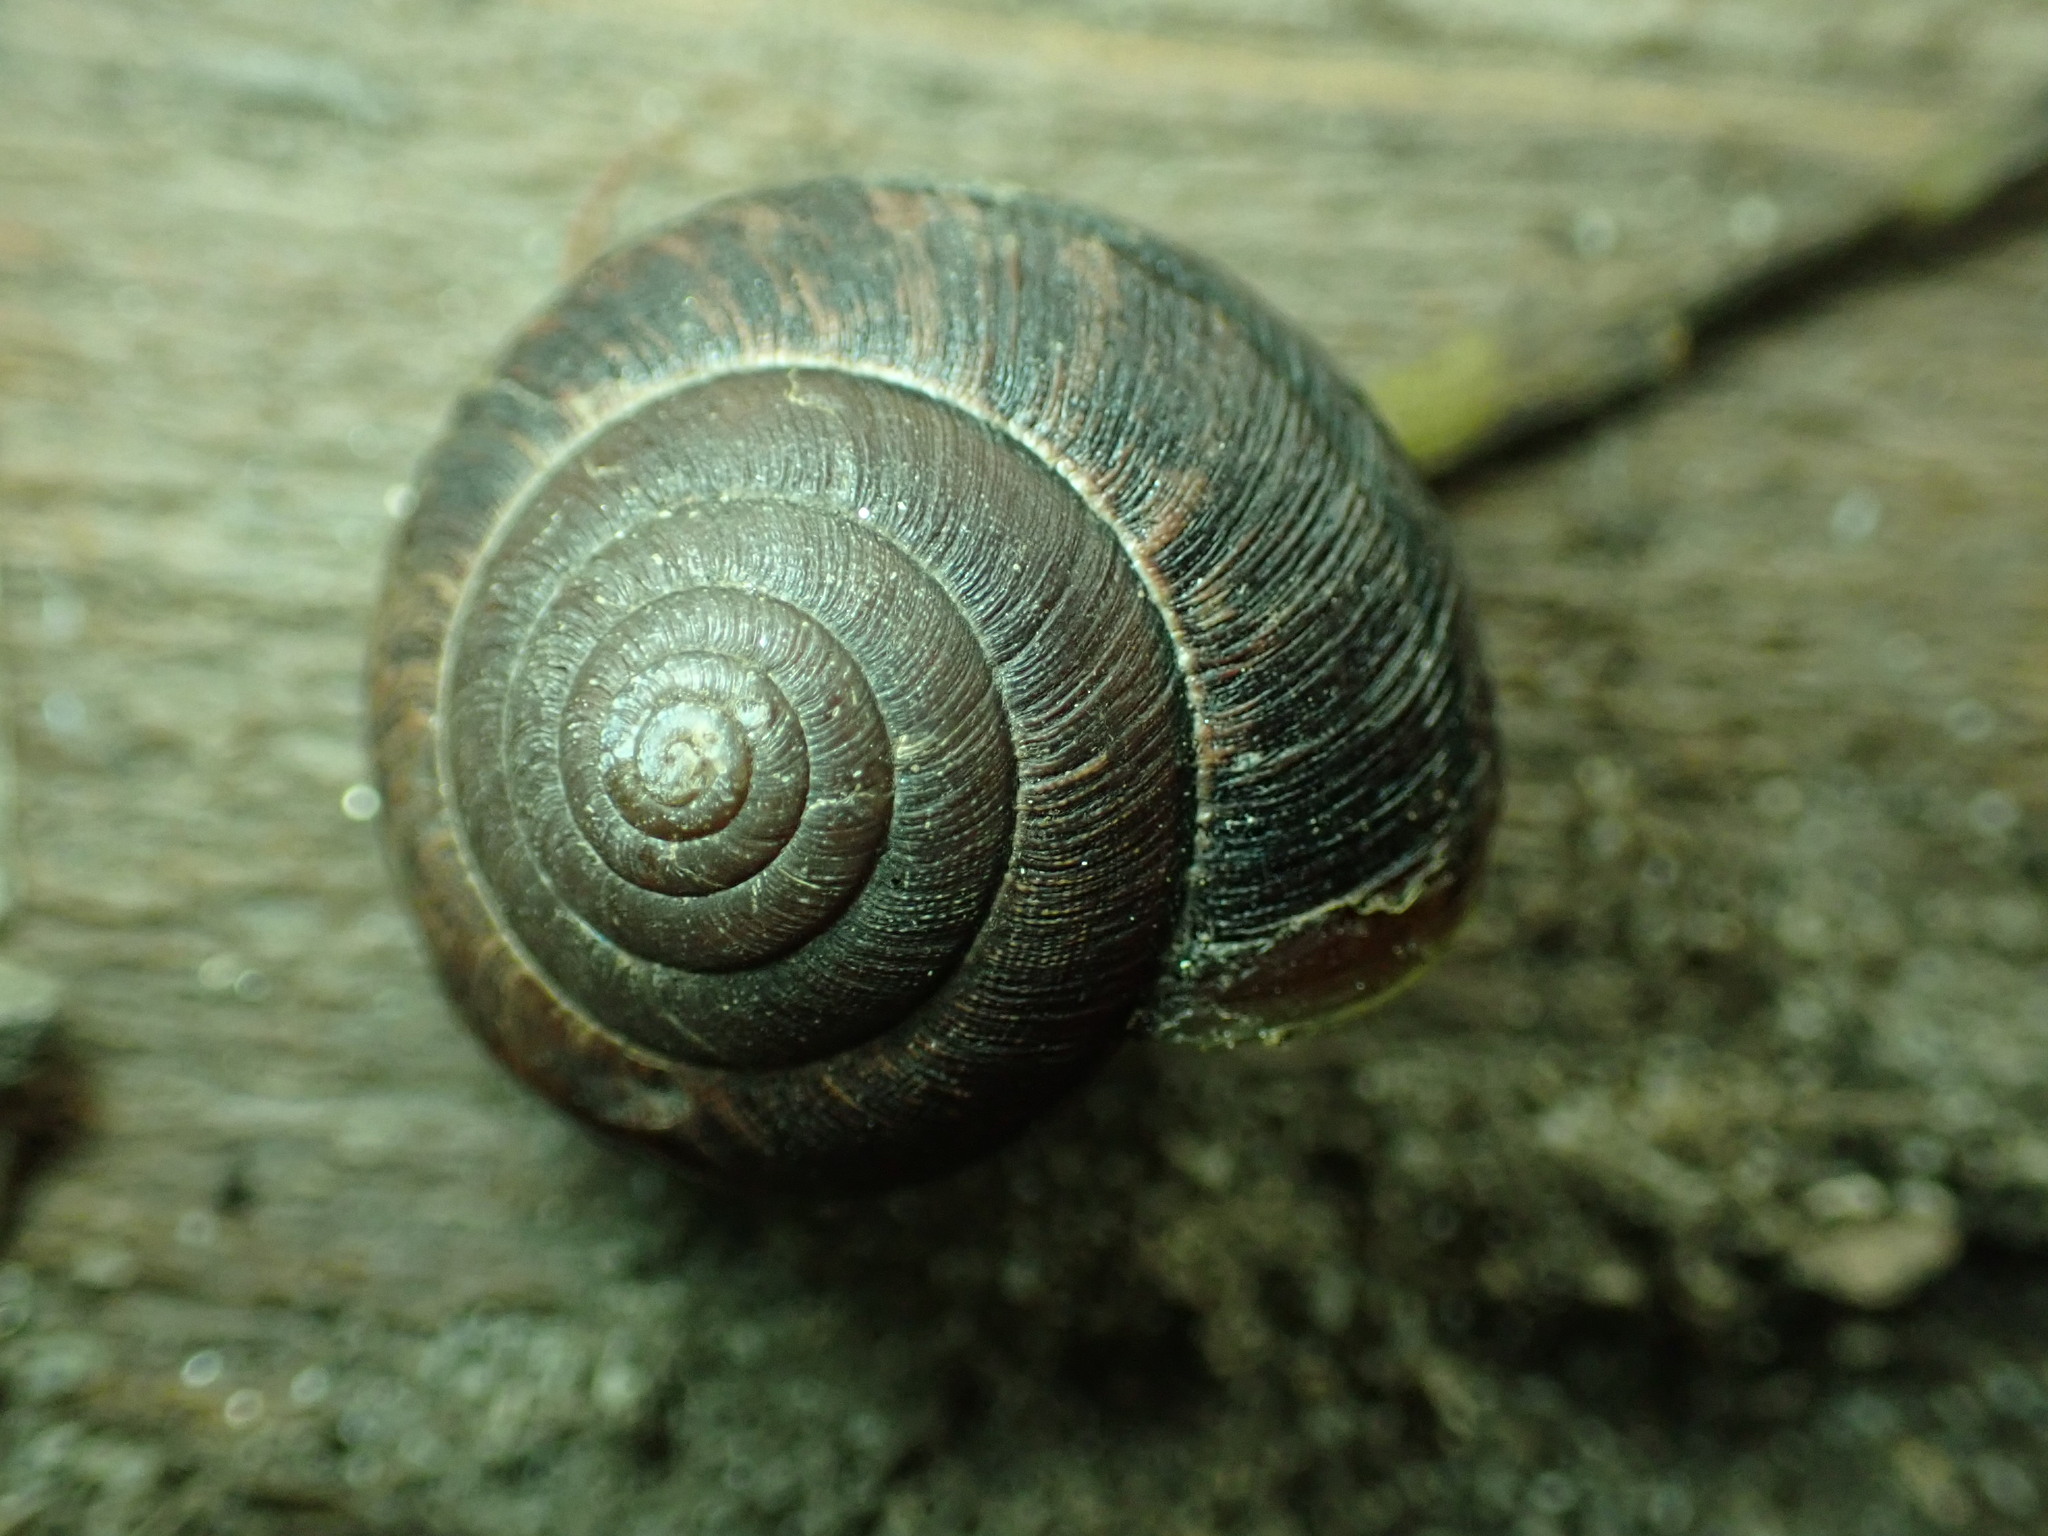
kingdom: Animalia
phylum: Mollusca
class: Gastropoda
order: Stylommatophora
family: Xanthonychidae
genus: Helminthoglypta
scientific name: Helminthoglypta arrosa
